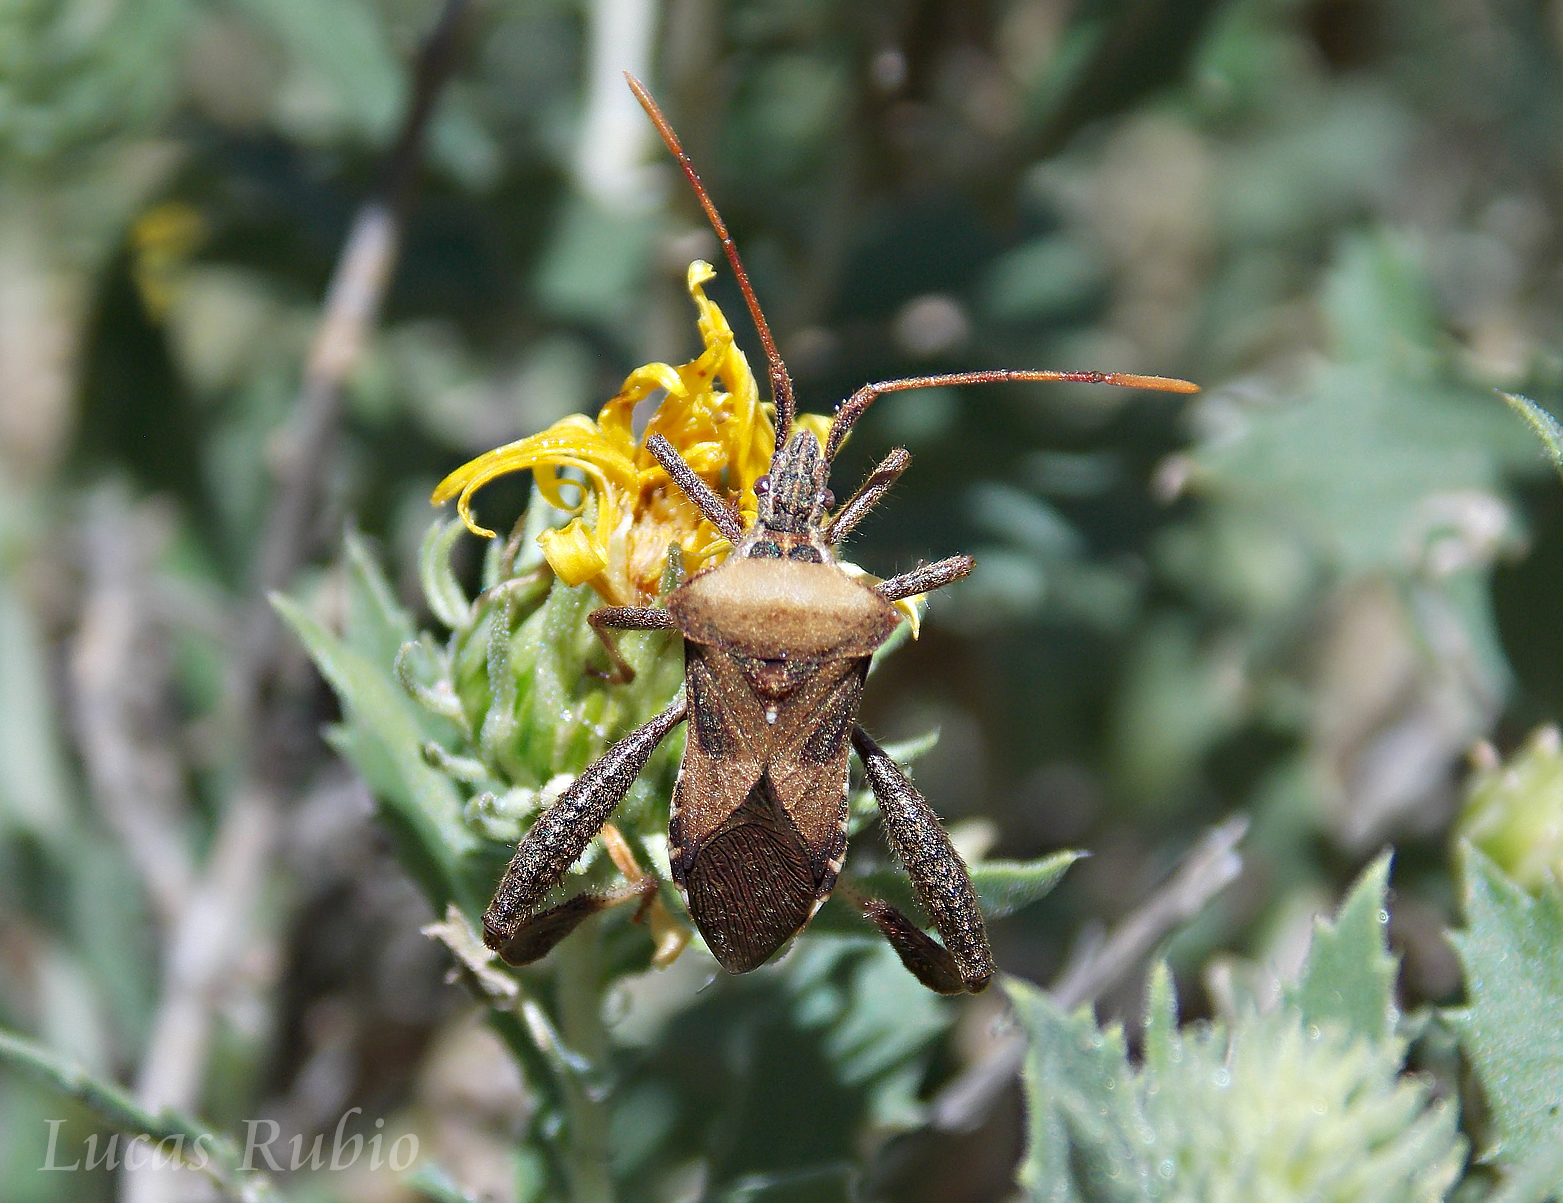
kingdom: Animalia
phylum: Arthropoda
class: Insecta
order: Hemiptera
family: Coreidae
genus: Leptoglossus
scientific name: Leptoglossus impictus
